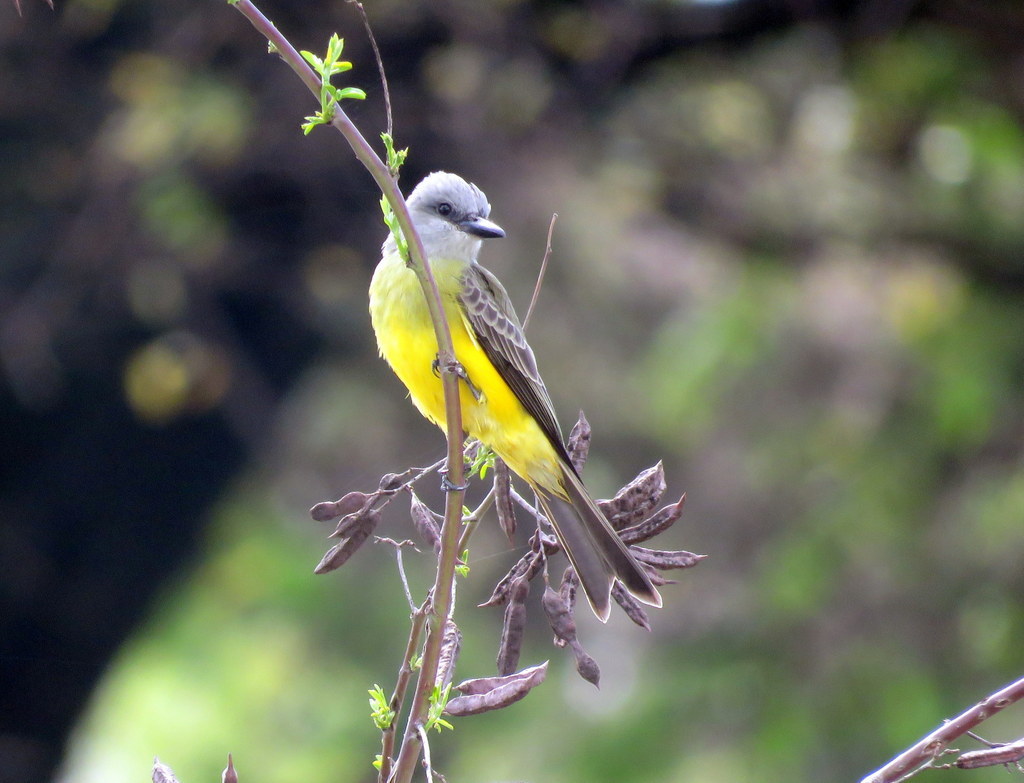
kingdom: Animalia
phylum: Chordata
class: Aves
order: Passeriformes
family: Tyrannidae
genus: Tyrannus
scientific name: Tyrannus melancholicus
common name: Tropical kingbird
